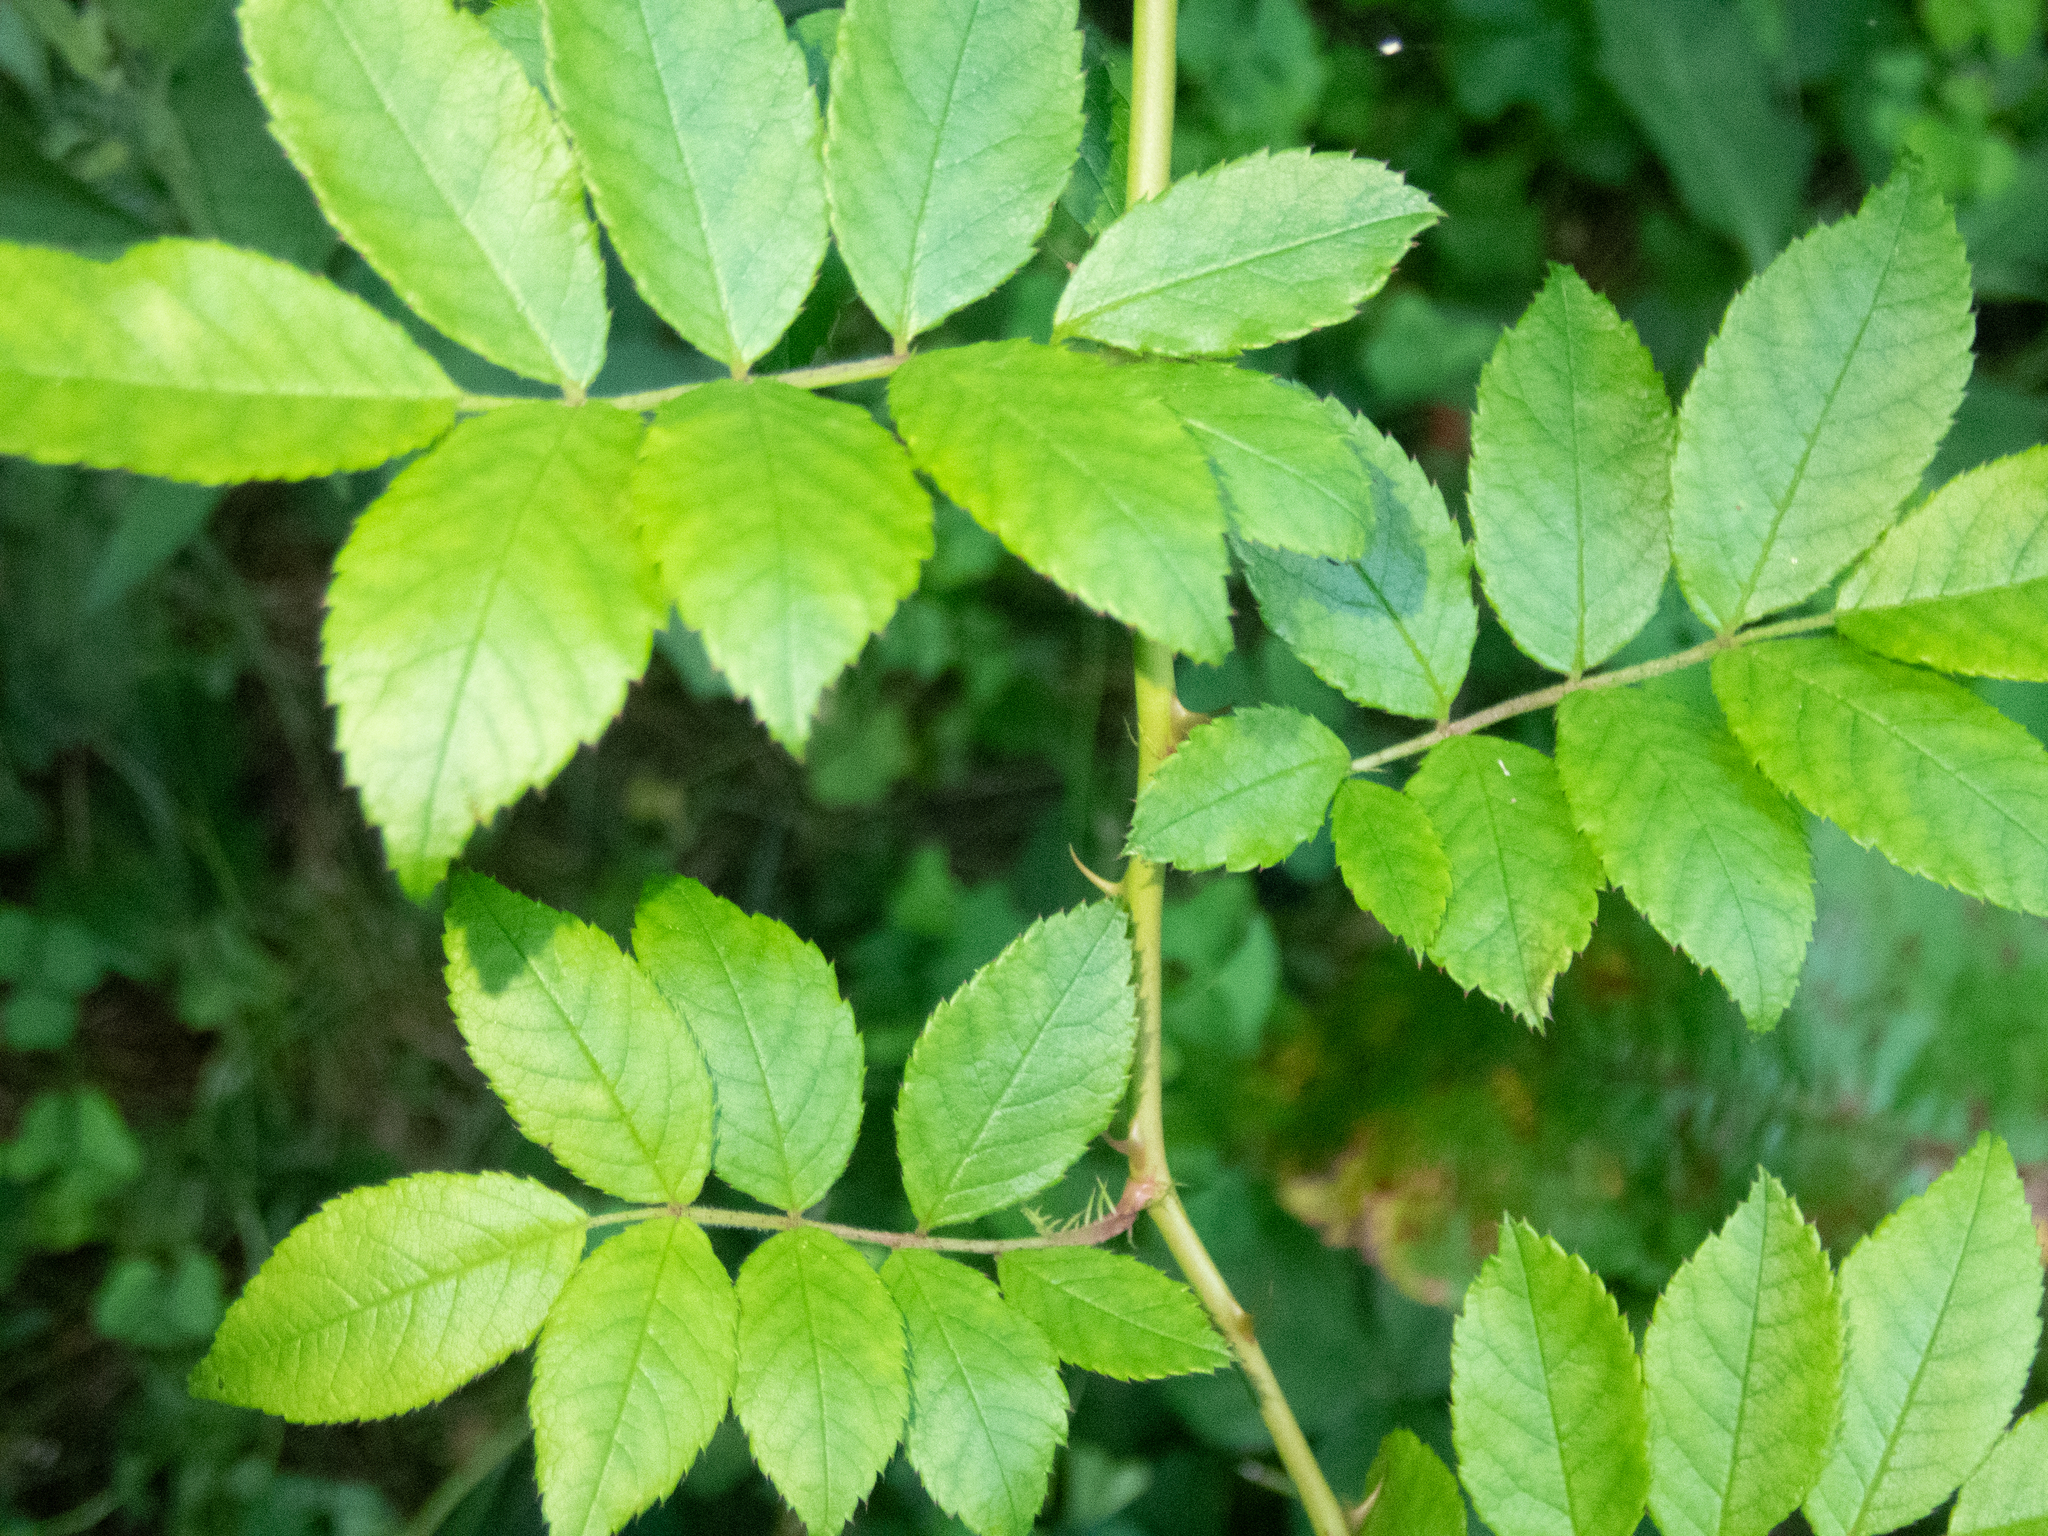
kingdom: Plantae
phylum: Tracheophyta
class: Magnoliopsida
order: Rosales
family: Rosaceae
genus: Rosa
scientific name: Rosa multiflora
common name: Multiflora rose
